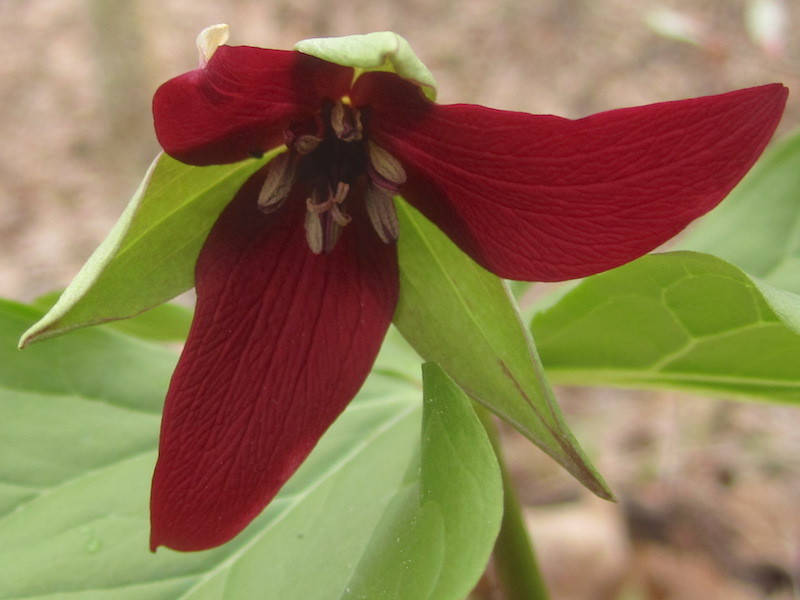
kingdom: Plantae
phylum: Tracheophyta
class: Liliopsida
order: Liliales
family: Melanthiaceae
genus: Trillium
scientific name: Trillium erectum
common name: Purple trillium
